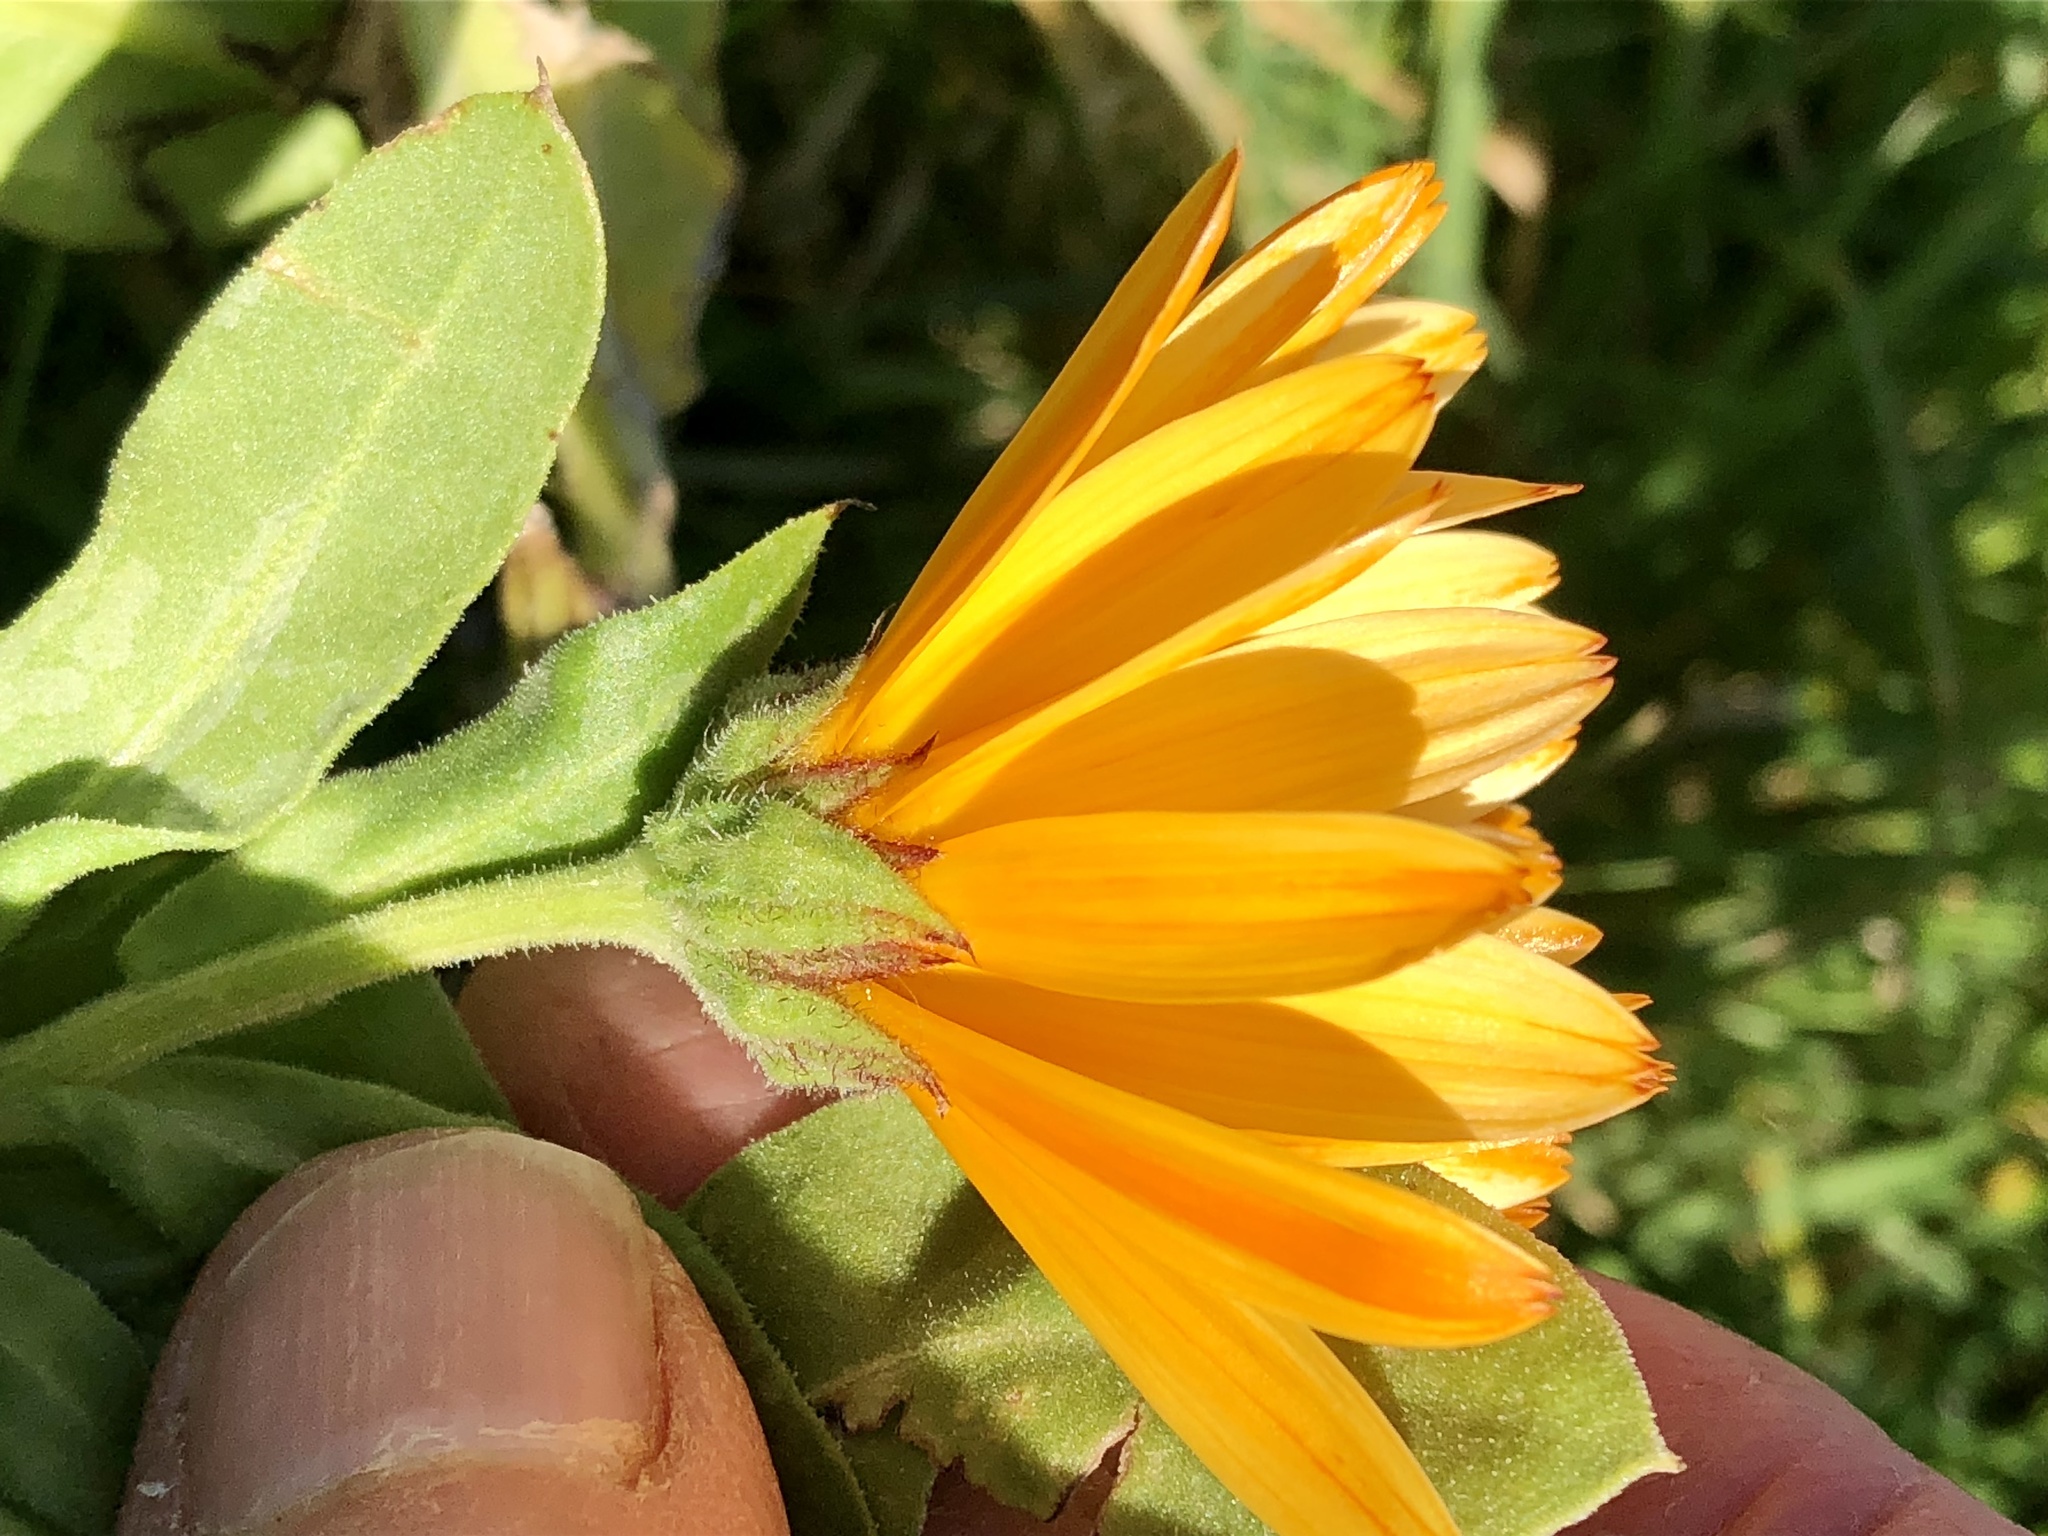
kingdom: Plantae
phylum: Tracheophyta
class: Magnoliopsida
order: Asterales
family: Asteraceae
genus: Calendula
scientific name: Calendula officinalis
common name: Pot marigold
